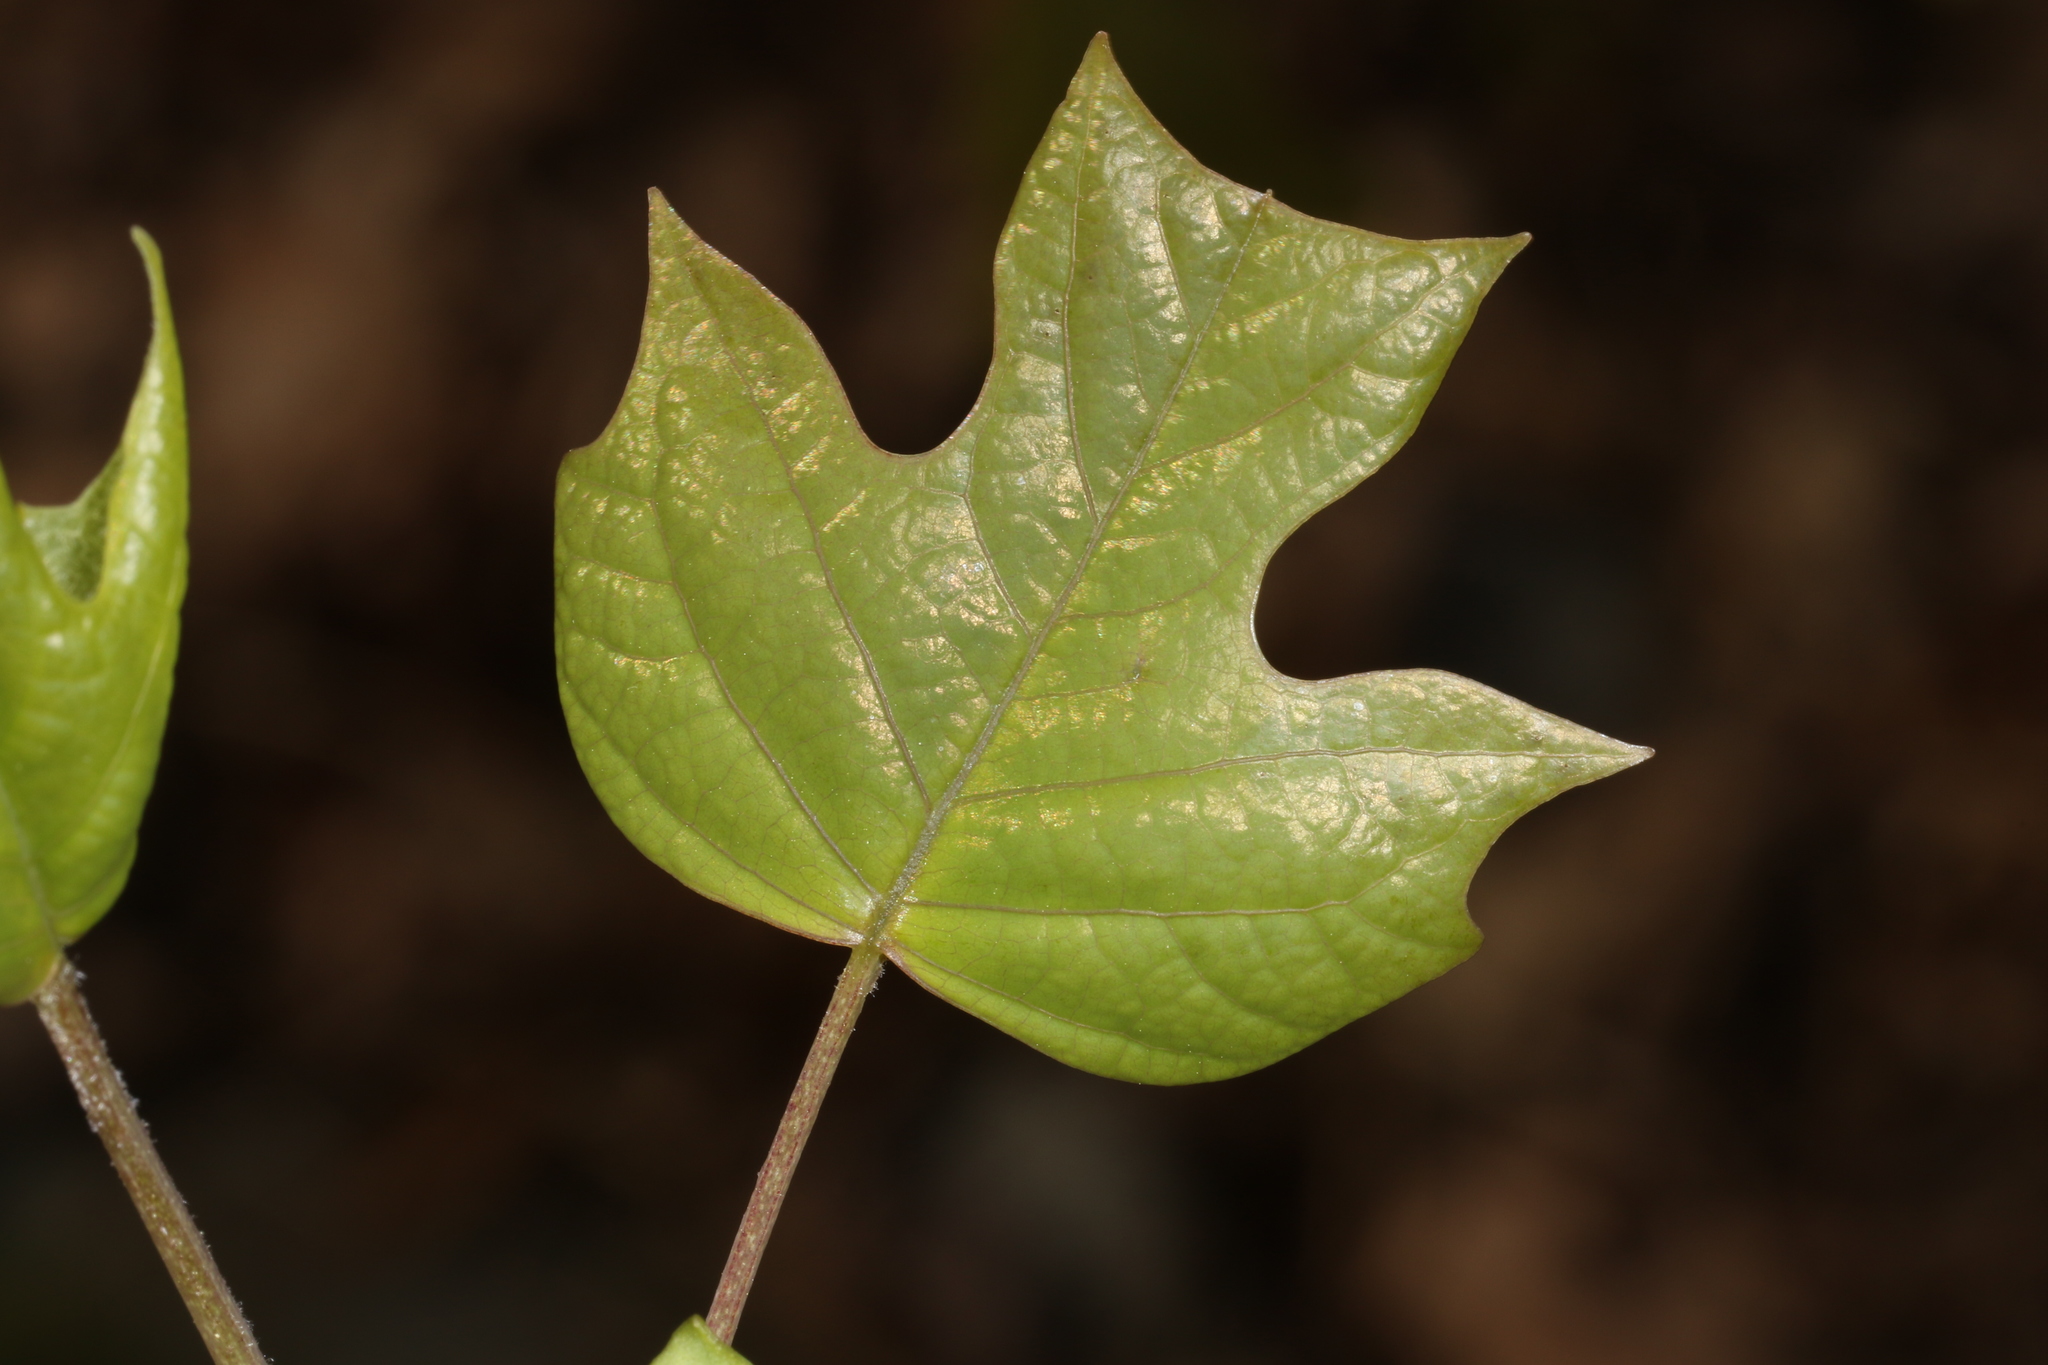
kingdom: Plantae
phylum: Tracheophyta
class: Magnoliopsida
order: Magnoliales
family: Magnoliaceae
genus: Liriodendron
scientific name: Liriodendron tulipifera
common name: Tulip tree
